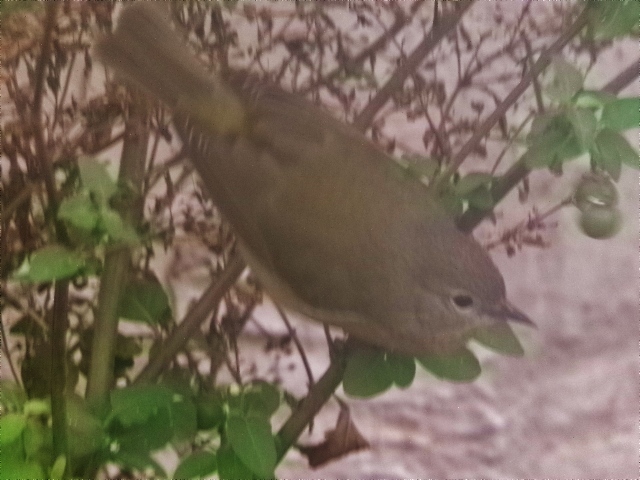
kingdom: Animalia
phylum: Chordata
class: Aves
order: Passeriformes
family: Parulidae
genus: Leiothlypis
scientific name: Leiothlypis celata
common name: Orange-crowned warbler
